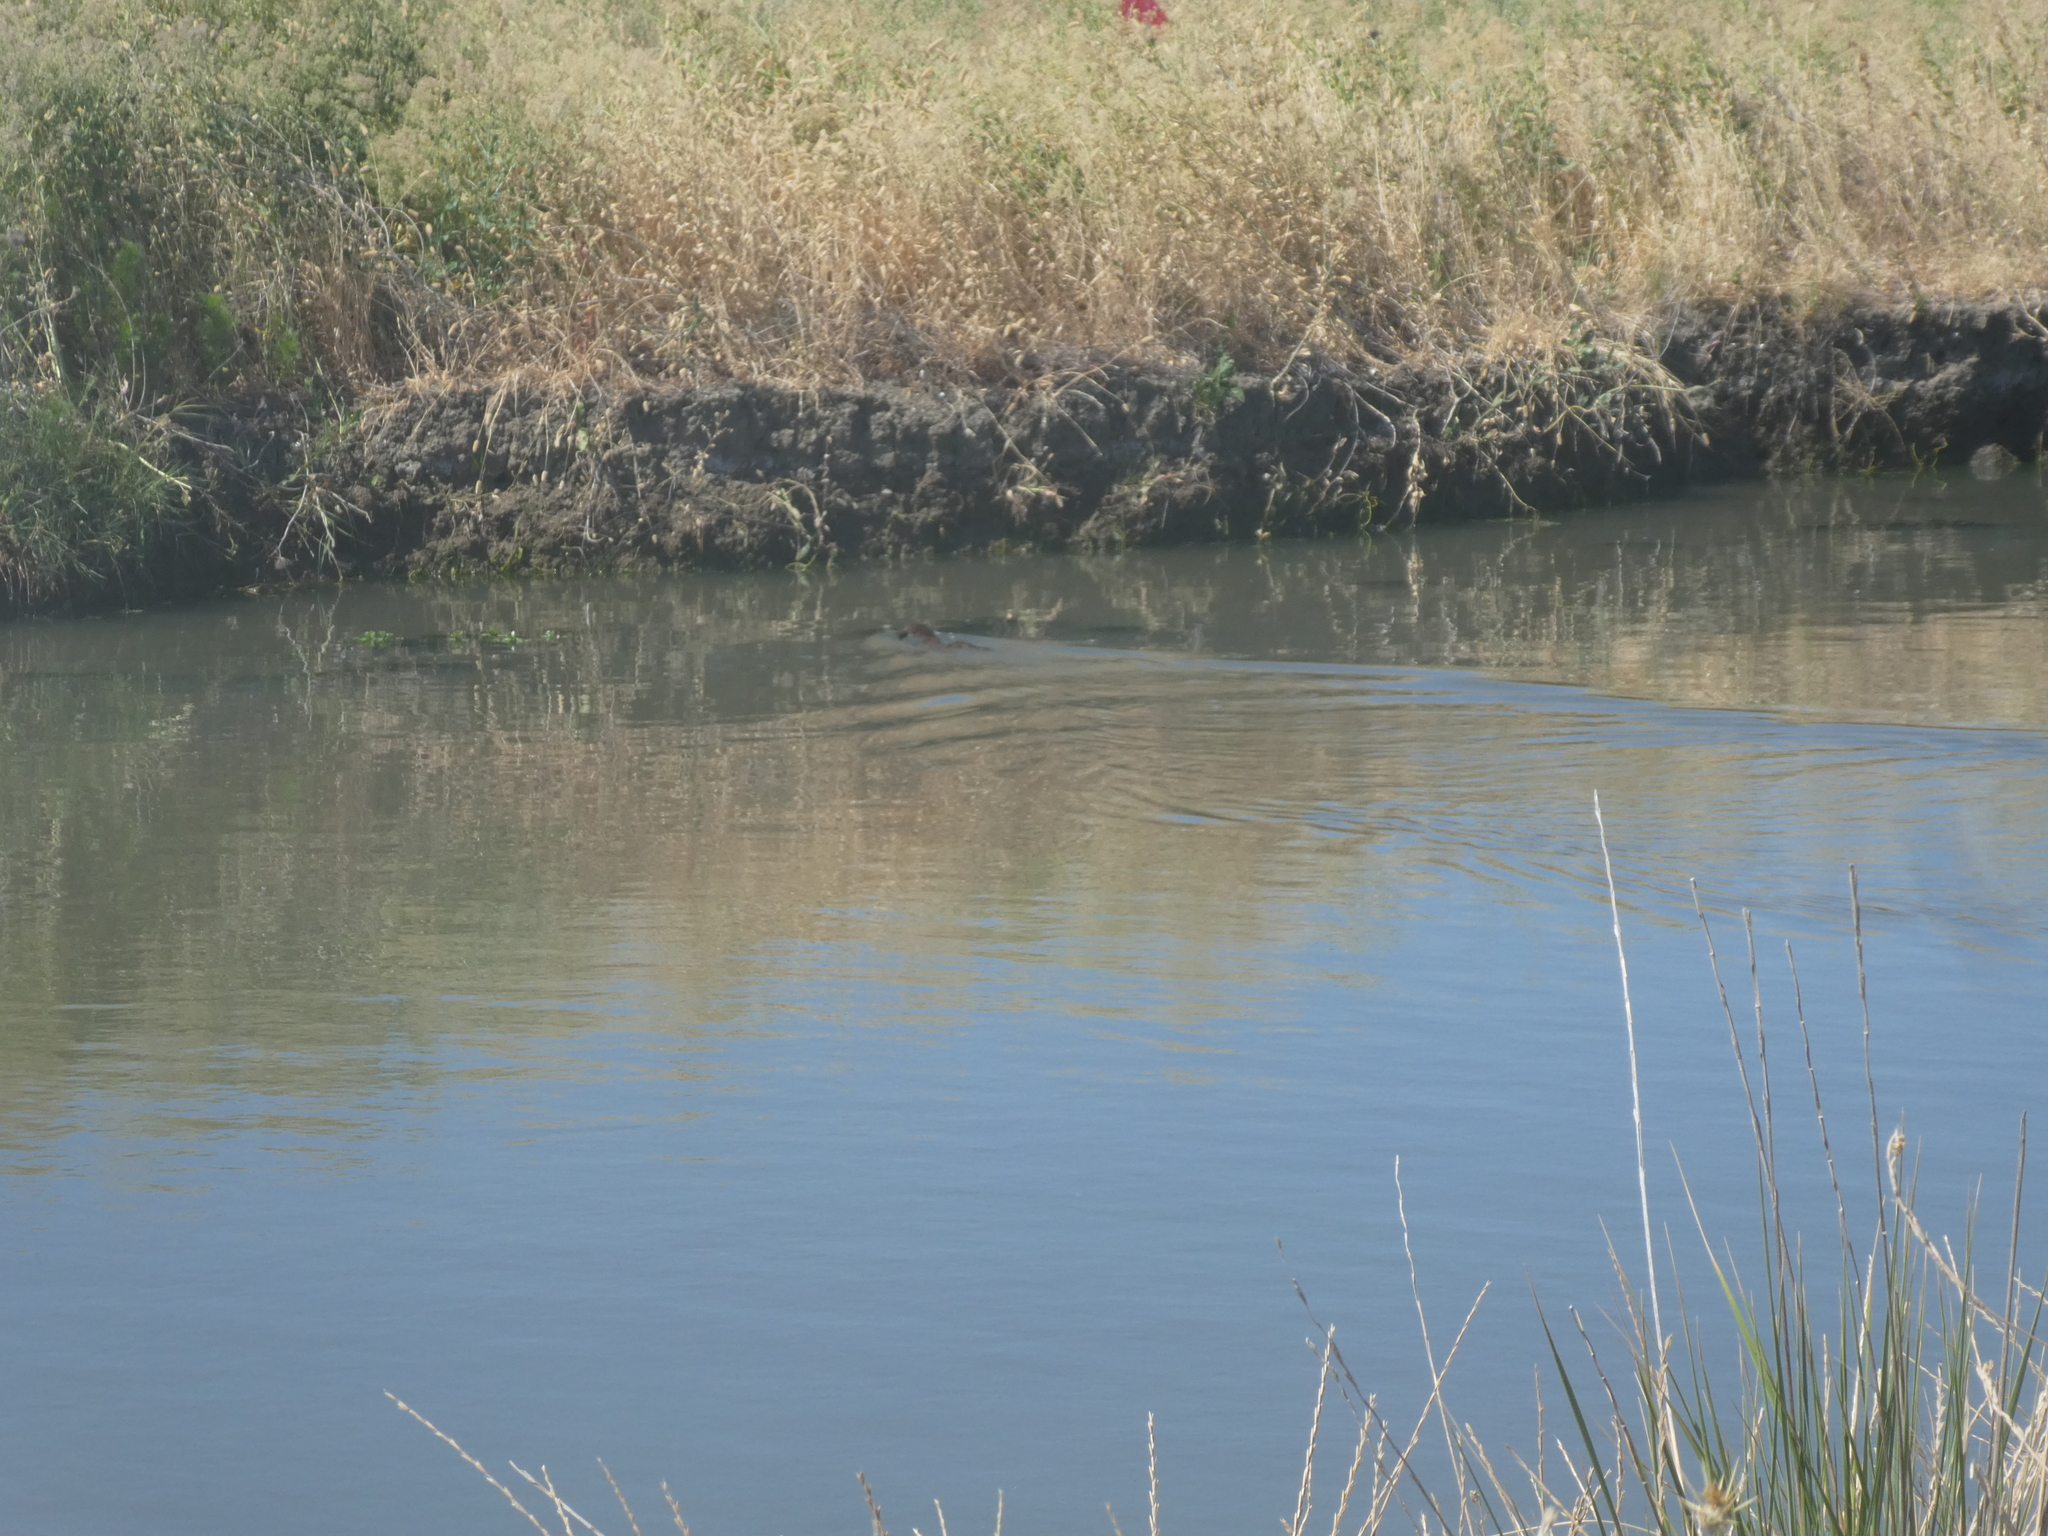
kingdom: Animalia
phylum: Chordata
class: Mammalia
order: Carnivora
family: Mustelidae
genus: Mustela
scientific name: Mustela
